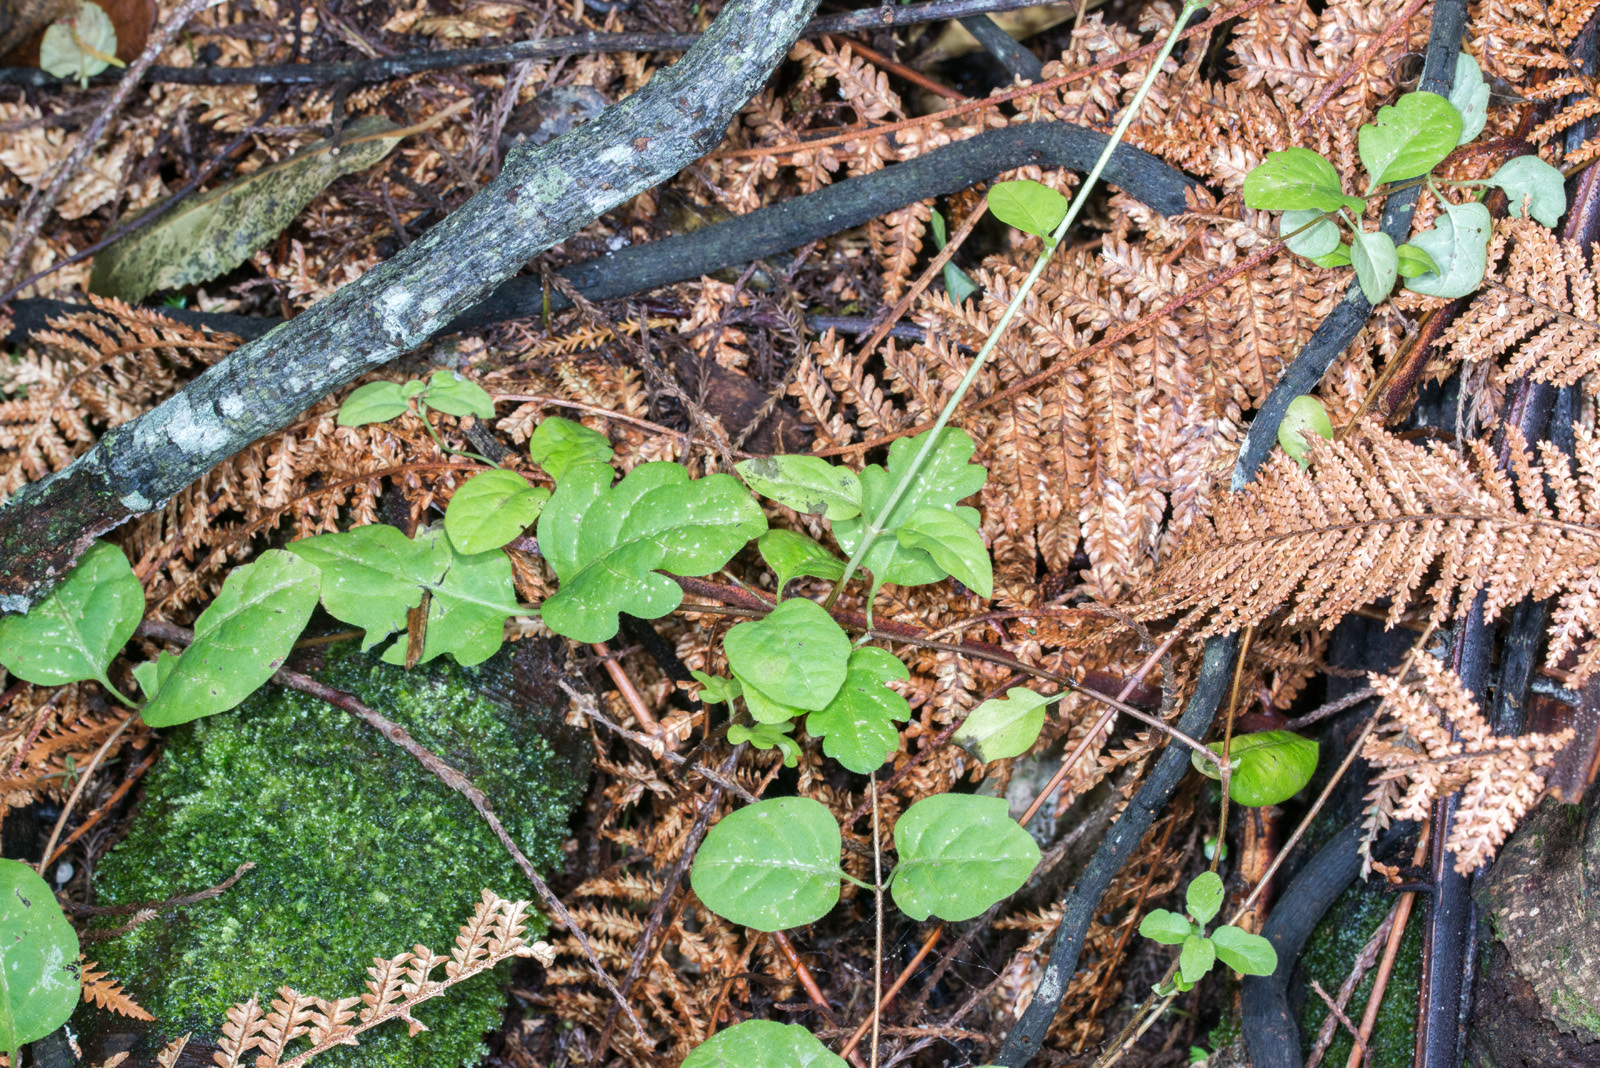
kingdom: Plantae
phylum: Tracheophyta
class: Magnoliopsida
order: Dipsacales
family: Caprifoliaceae
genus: Lonicera
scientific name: Lonicera japonica
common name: Japanese honeysuckle
